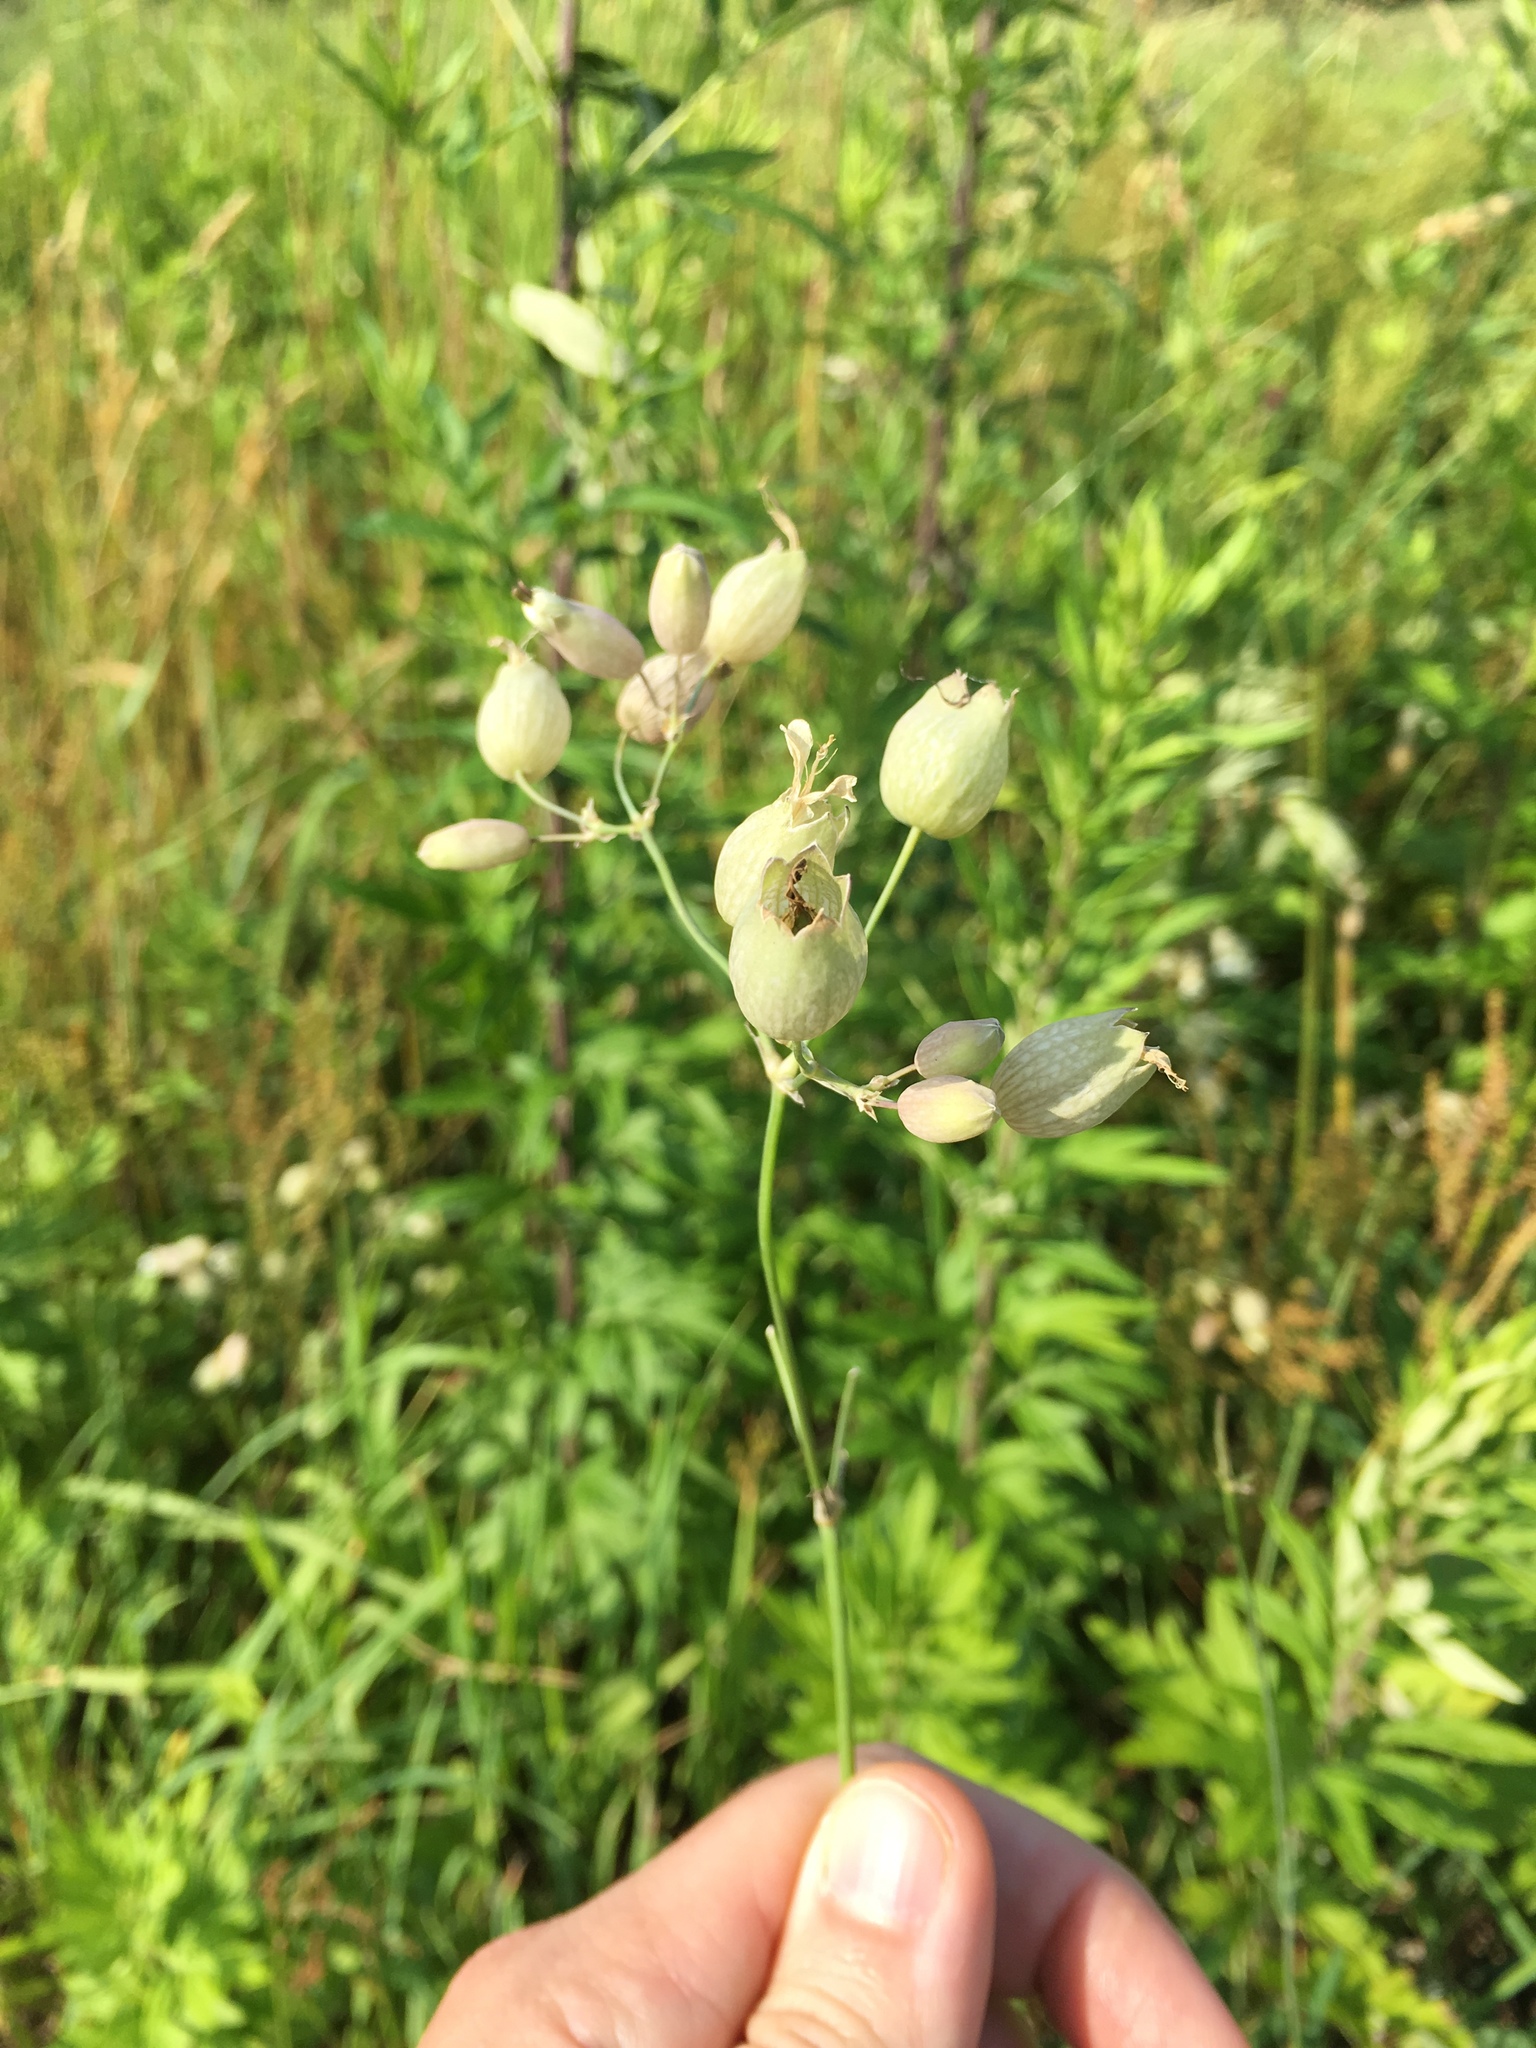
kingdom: Plantae
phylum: Tracheophyta
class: Magnoliopsida
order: Caryophyllales
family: Caryophyllaceae
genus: Silene
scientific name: Silene vulgaris
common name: Bladder campion
